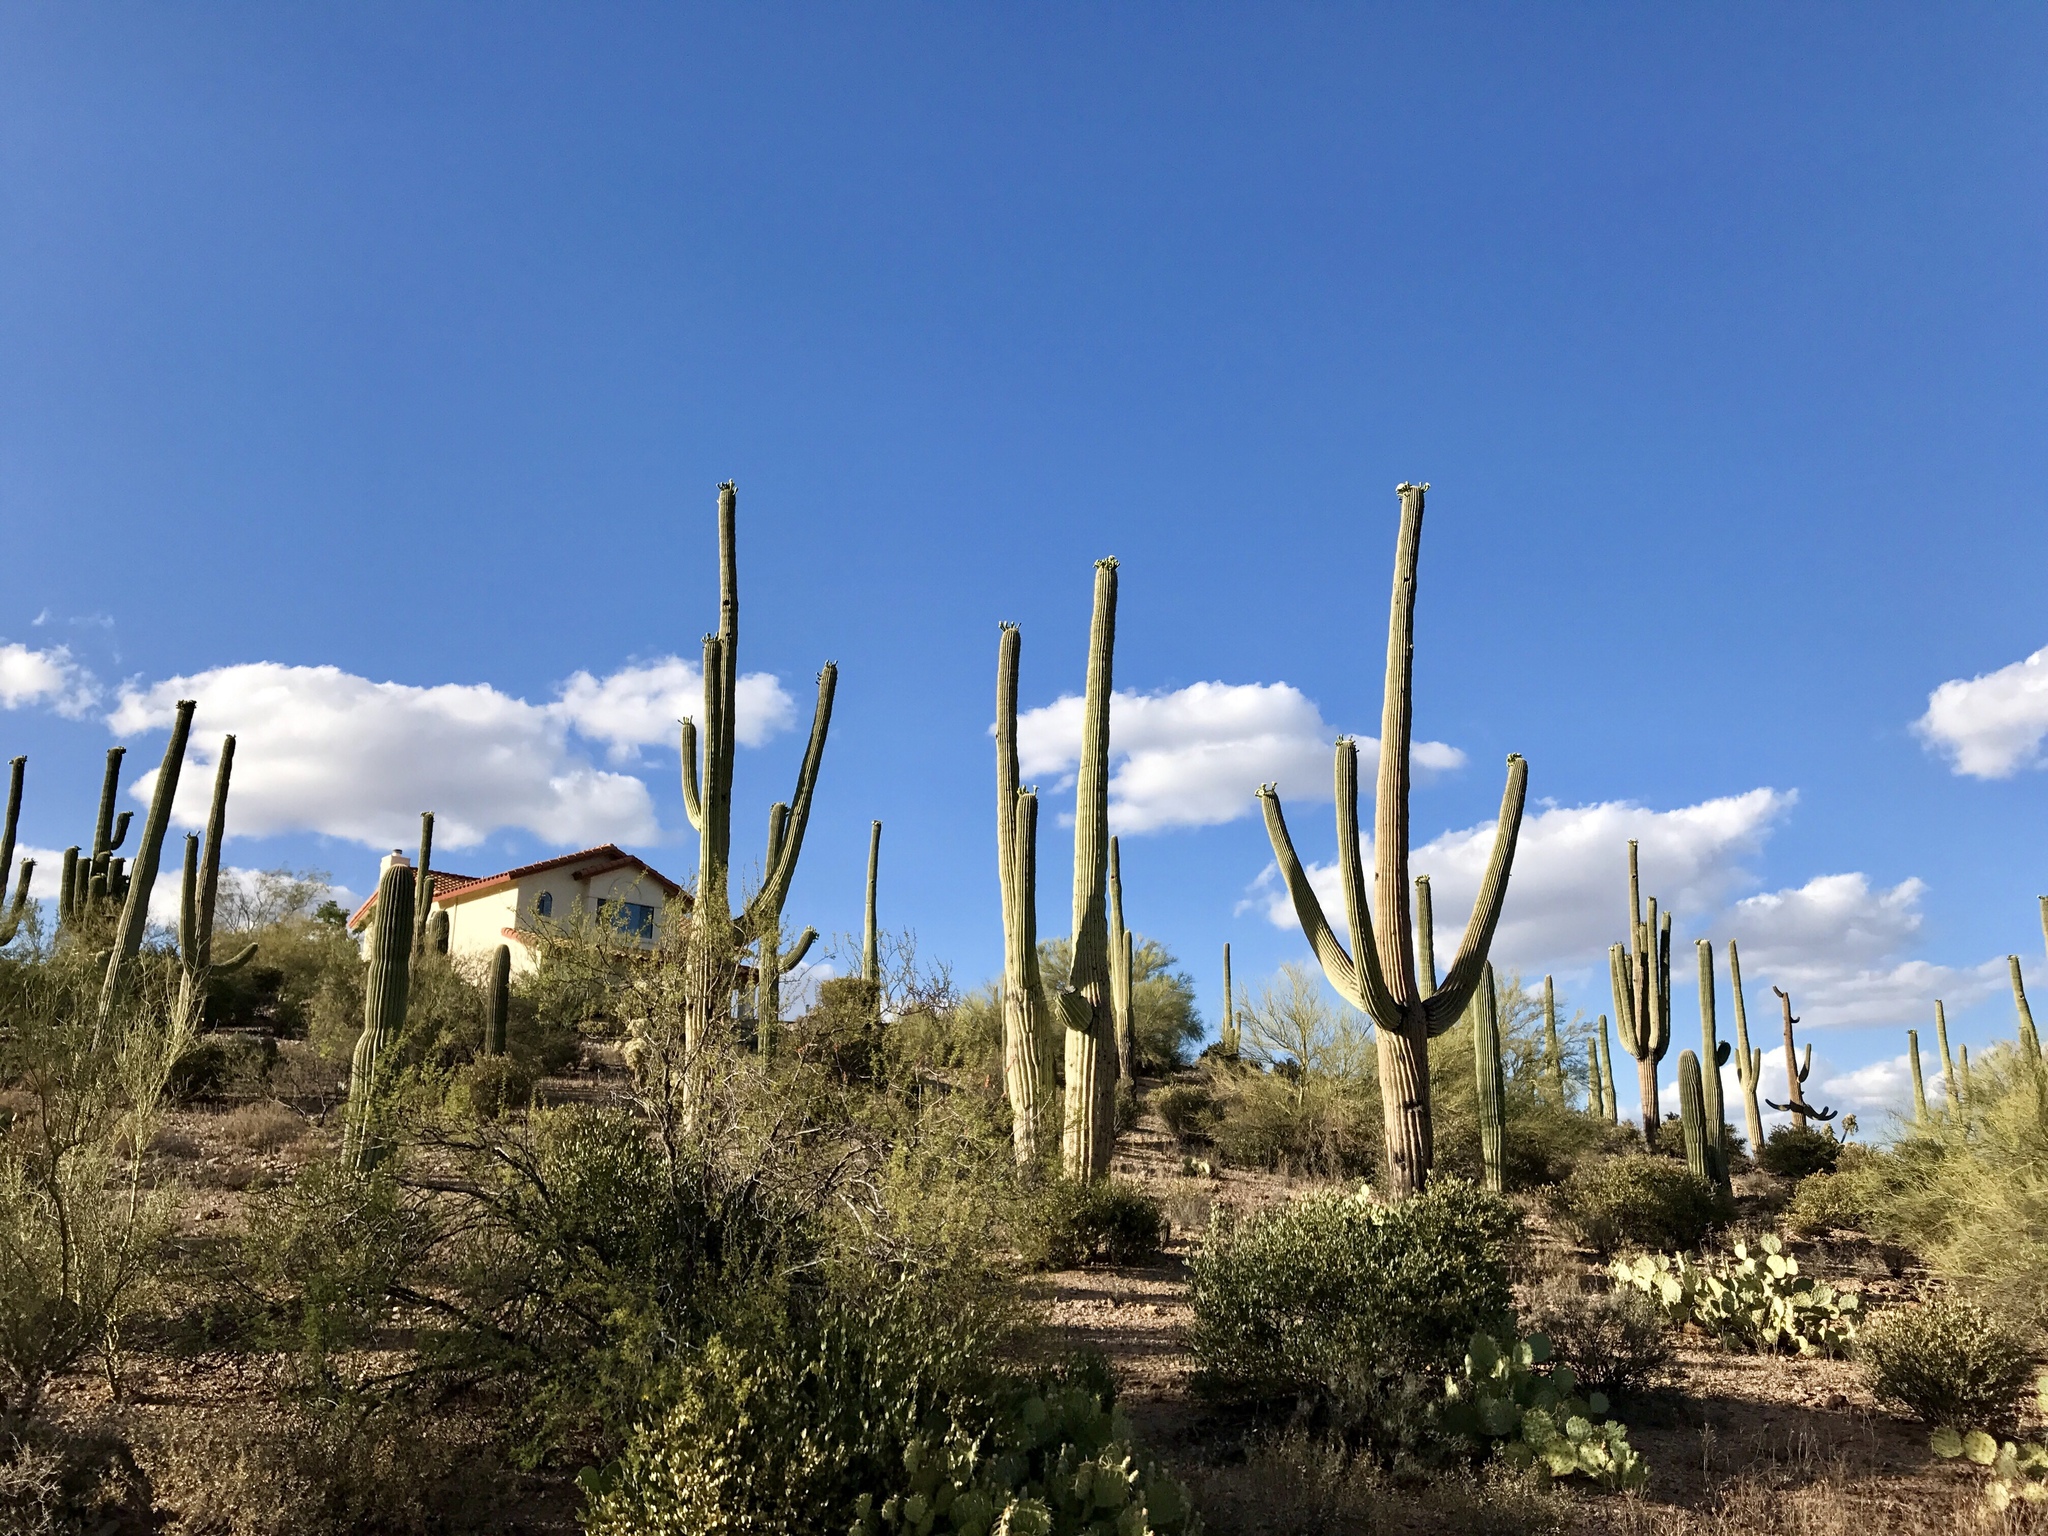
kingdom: Plantae
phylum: Tracheophyta
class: Magnoliopsida
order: Caryophyllales
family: Cactaceae
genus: Carnegiea
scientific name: Carnegiea gigantea
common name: Saguaro
